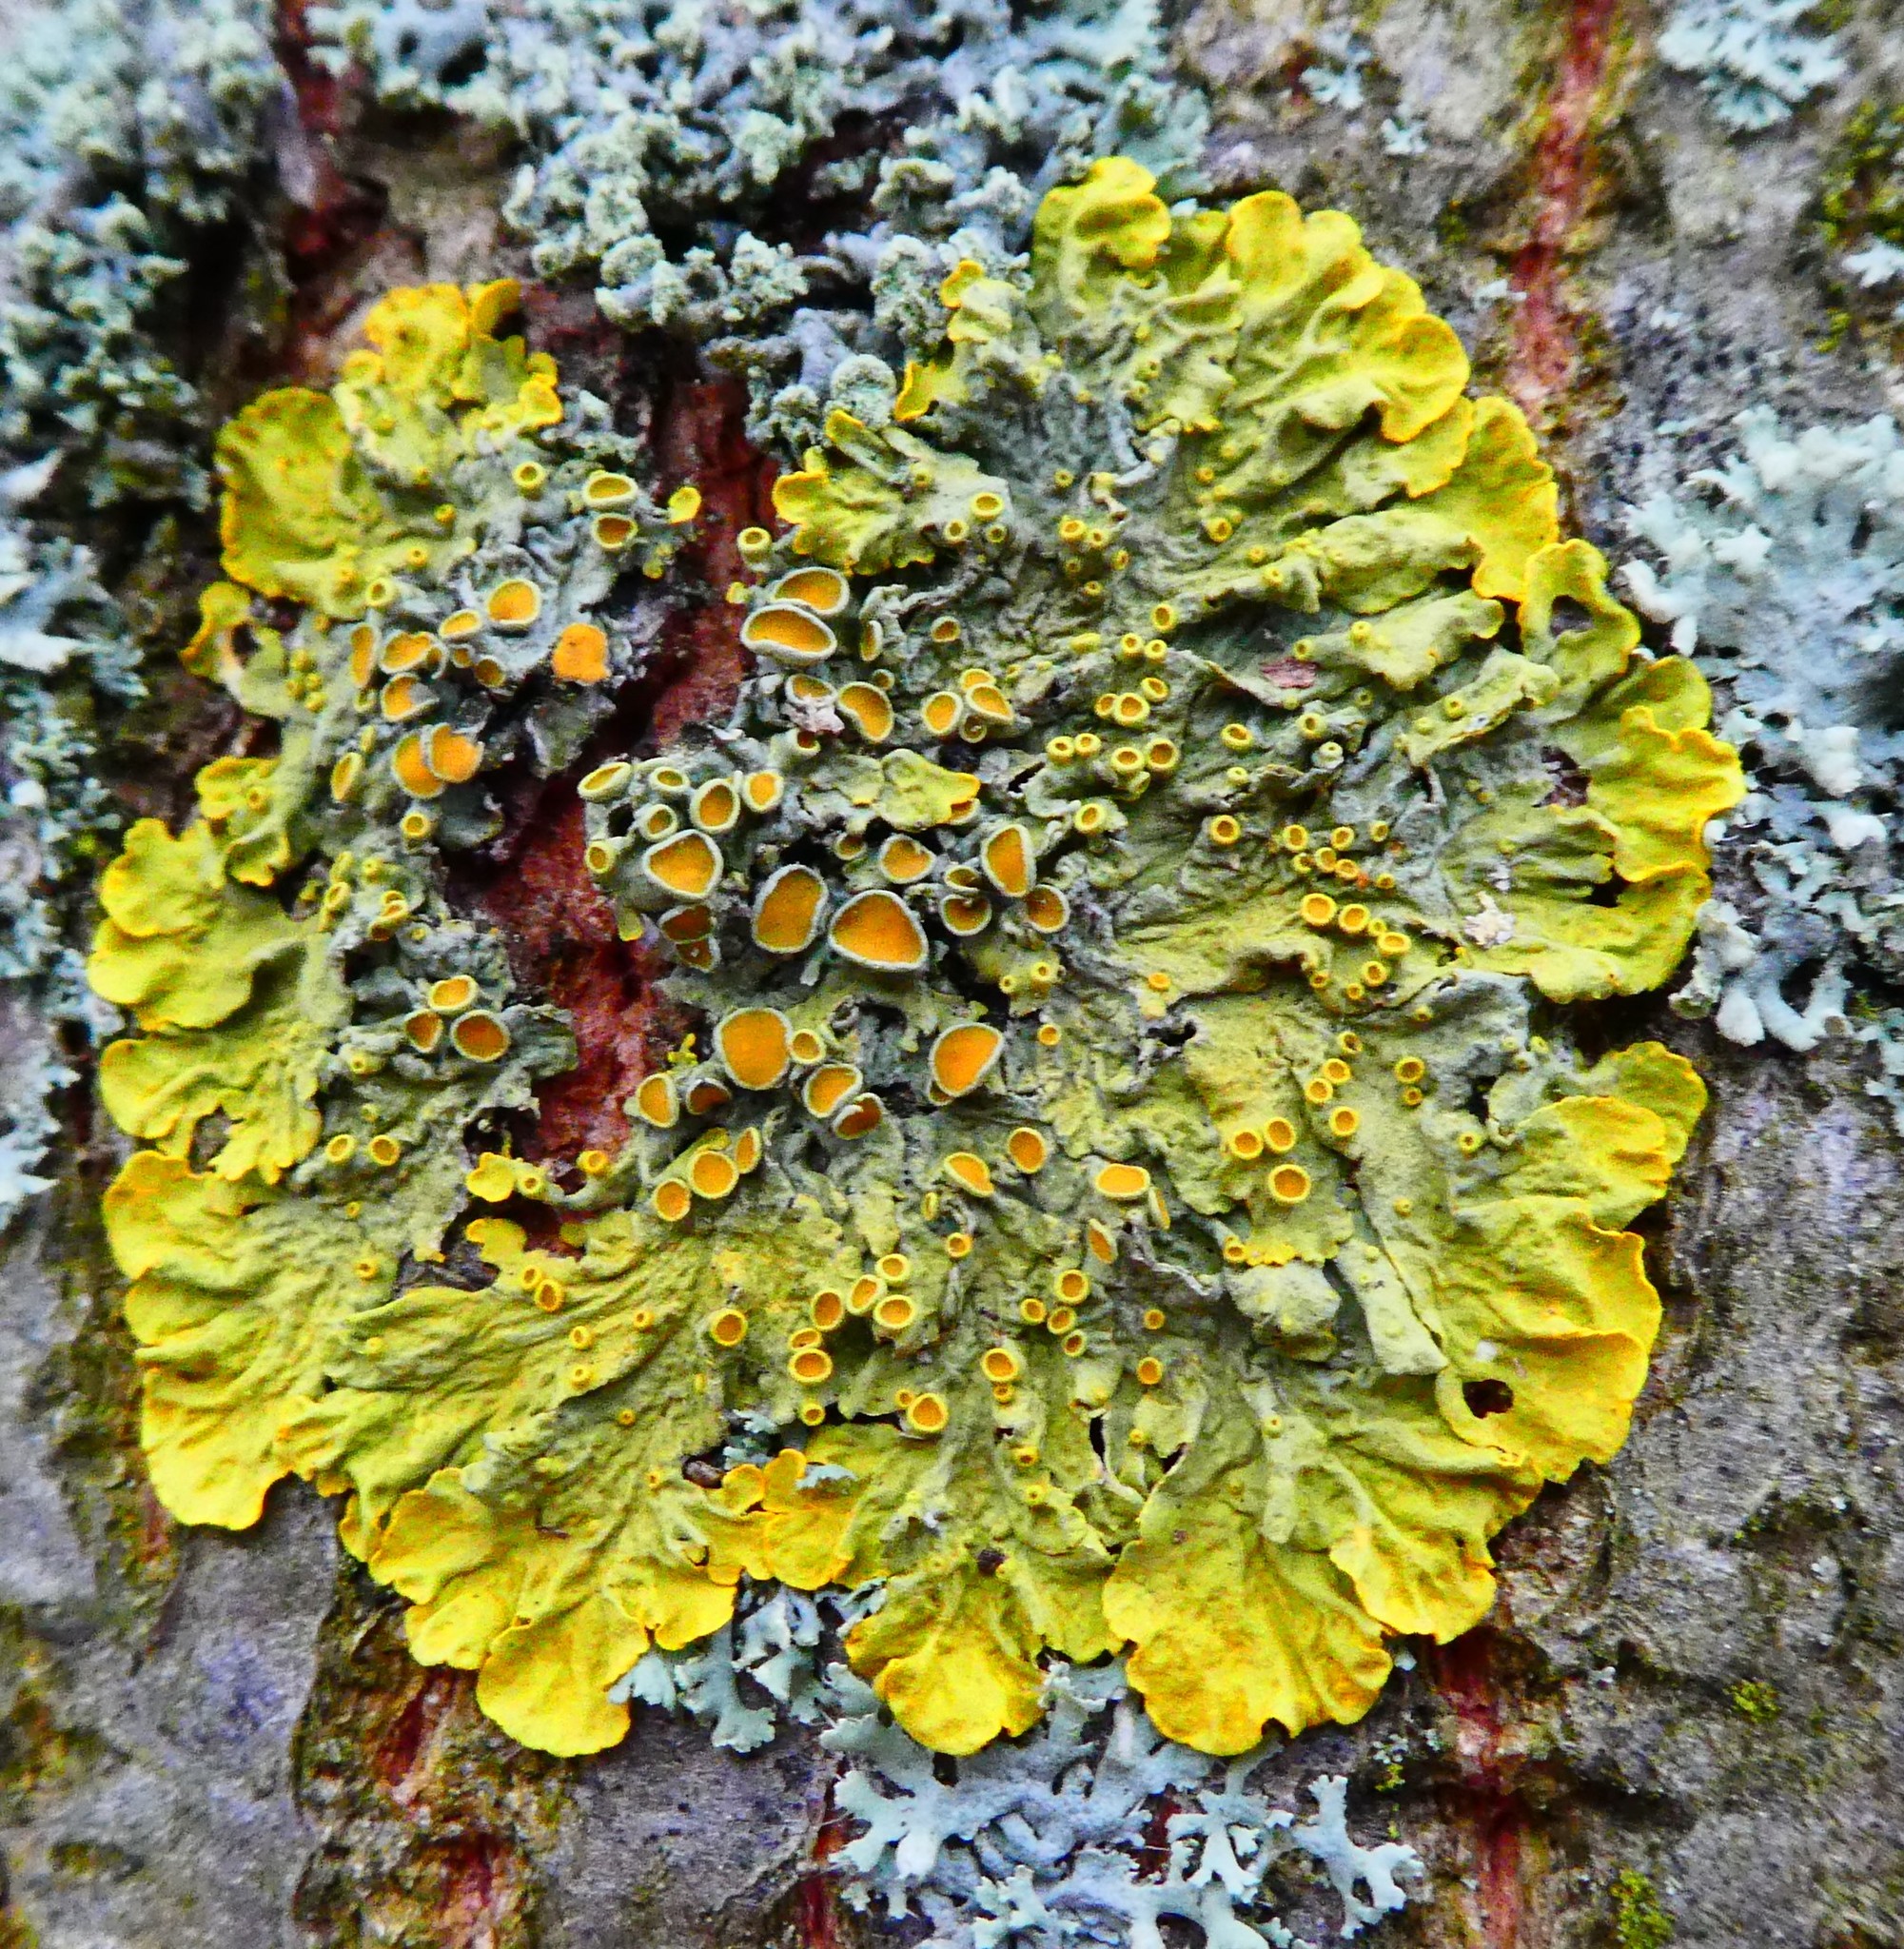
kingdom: Fungi
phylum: Ascomycota
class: Lecanoromycetes
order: Teloschistales
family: Teloschistaceae
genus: Xanthoria
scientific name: Xanthoria parietina
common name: Common orange lichen
